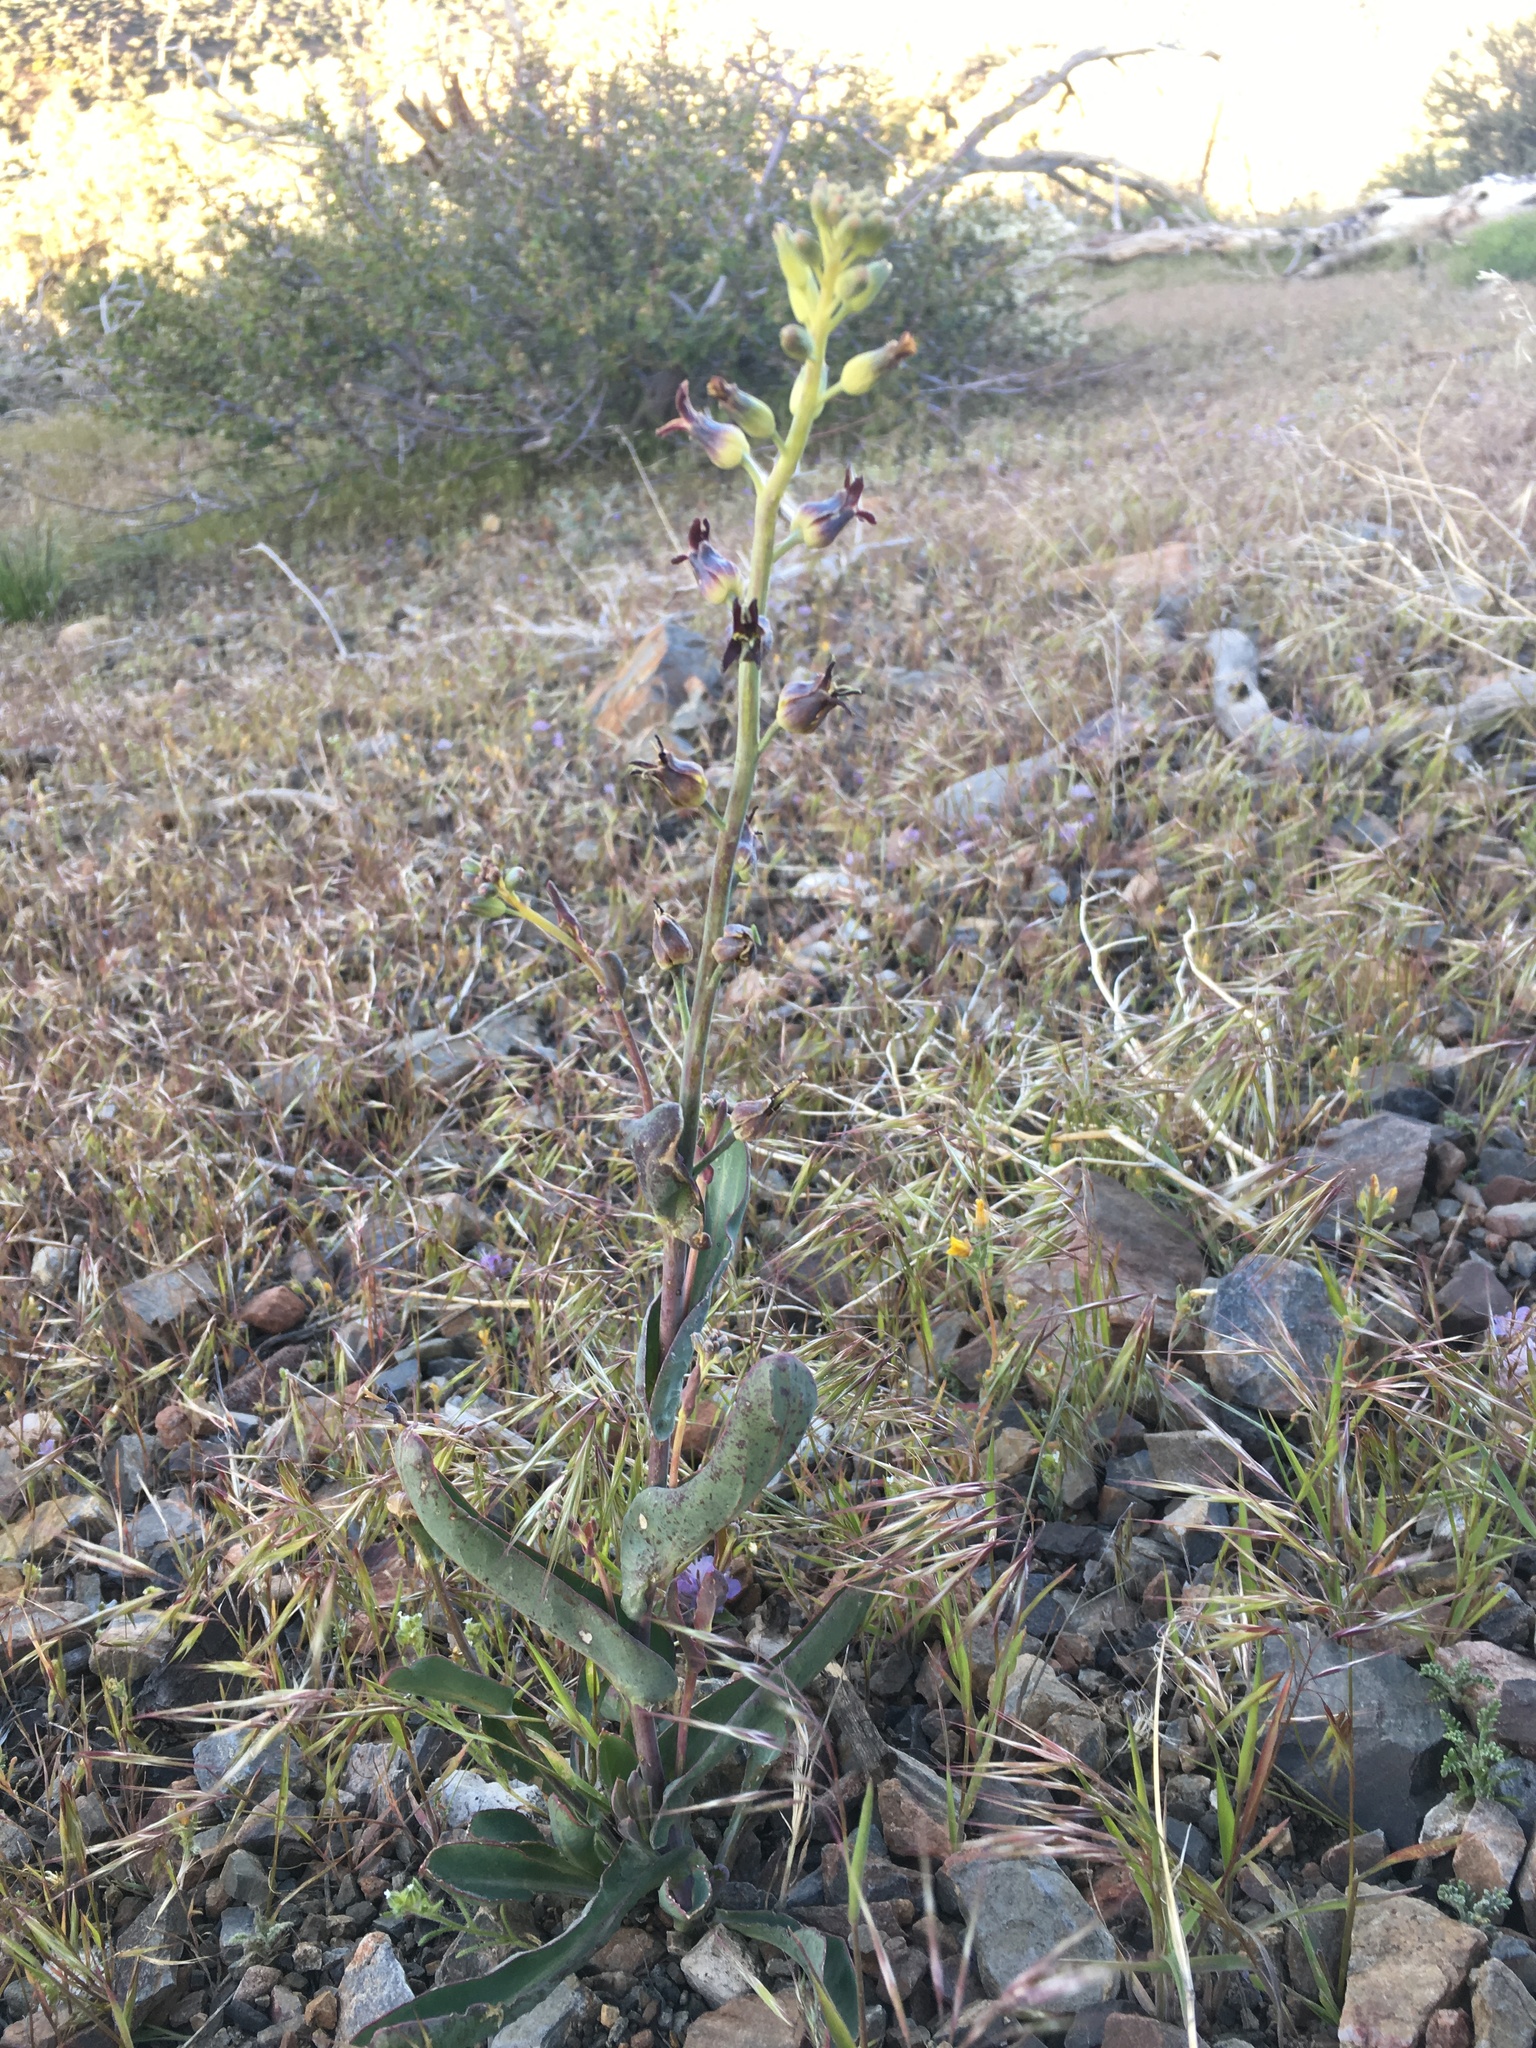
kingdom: Plantae
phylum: Tracheophyta
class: Magnoliopsida
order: Brassicales
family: Brassicaceae
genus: Streptanthus
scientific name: Streptanthus cordatus
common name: Heart-leaf jewel-flower
